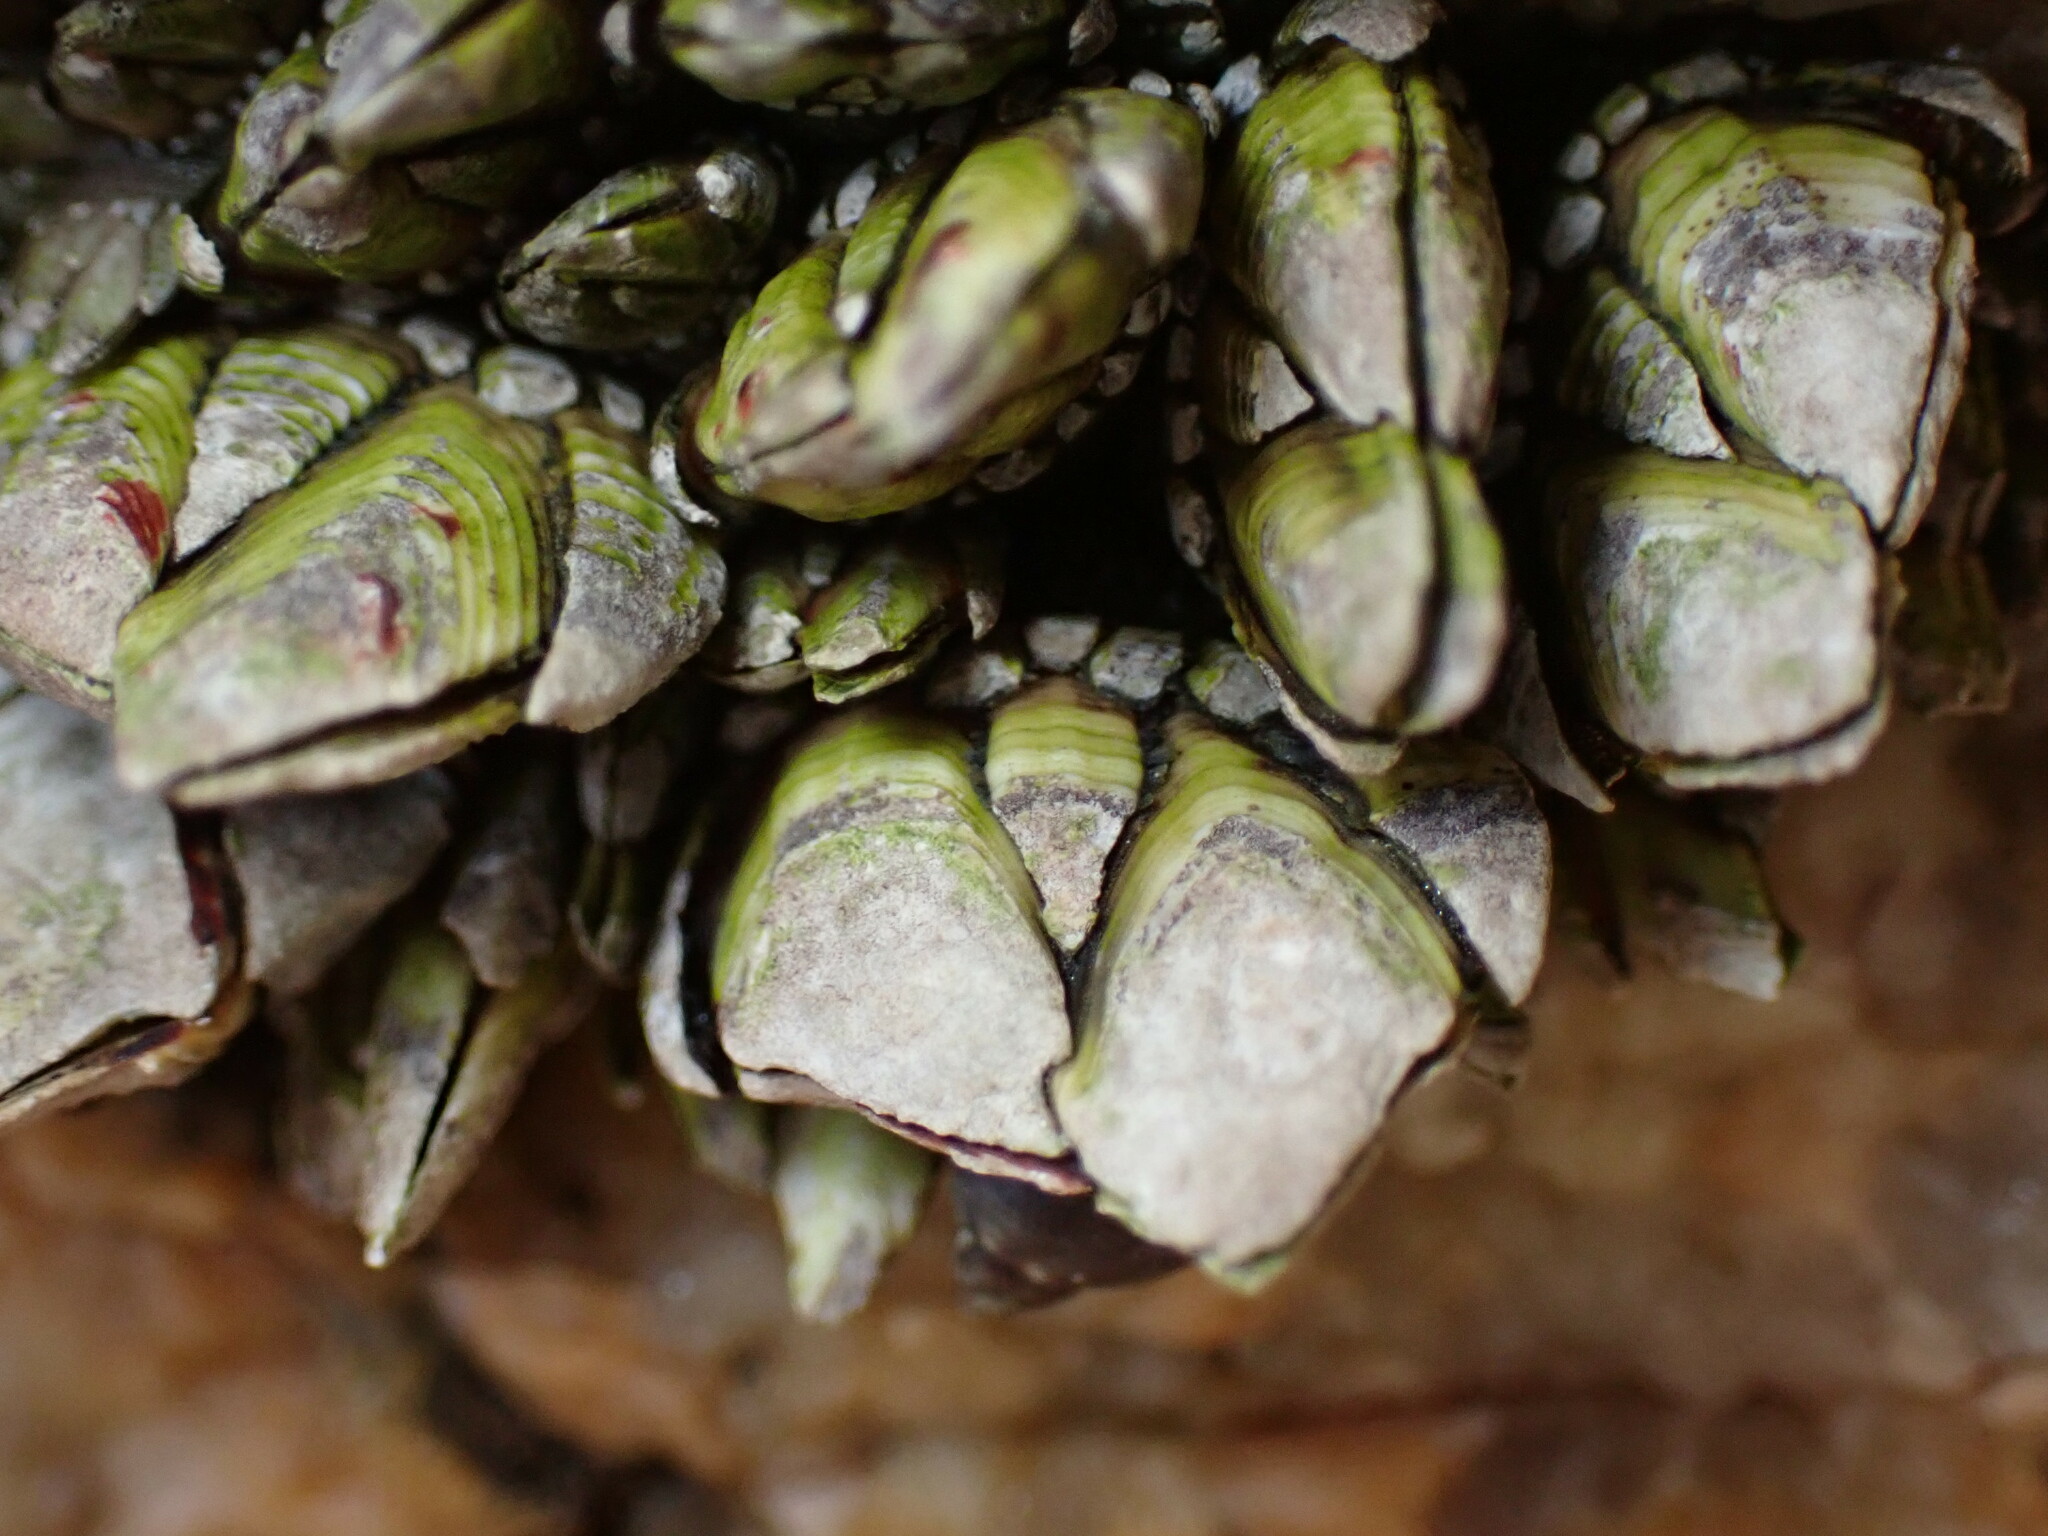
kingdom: Animalia
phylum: Arthropoda
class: Maxillopoda
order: Pedunculata
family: Pollicipedidae
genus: Capitulum
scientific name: Capitulum mitella
